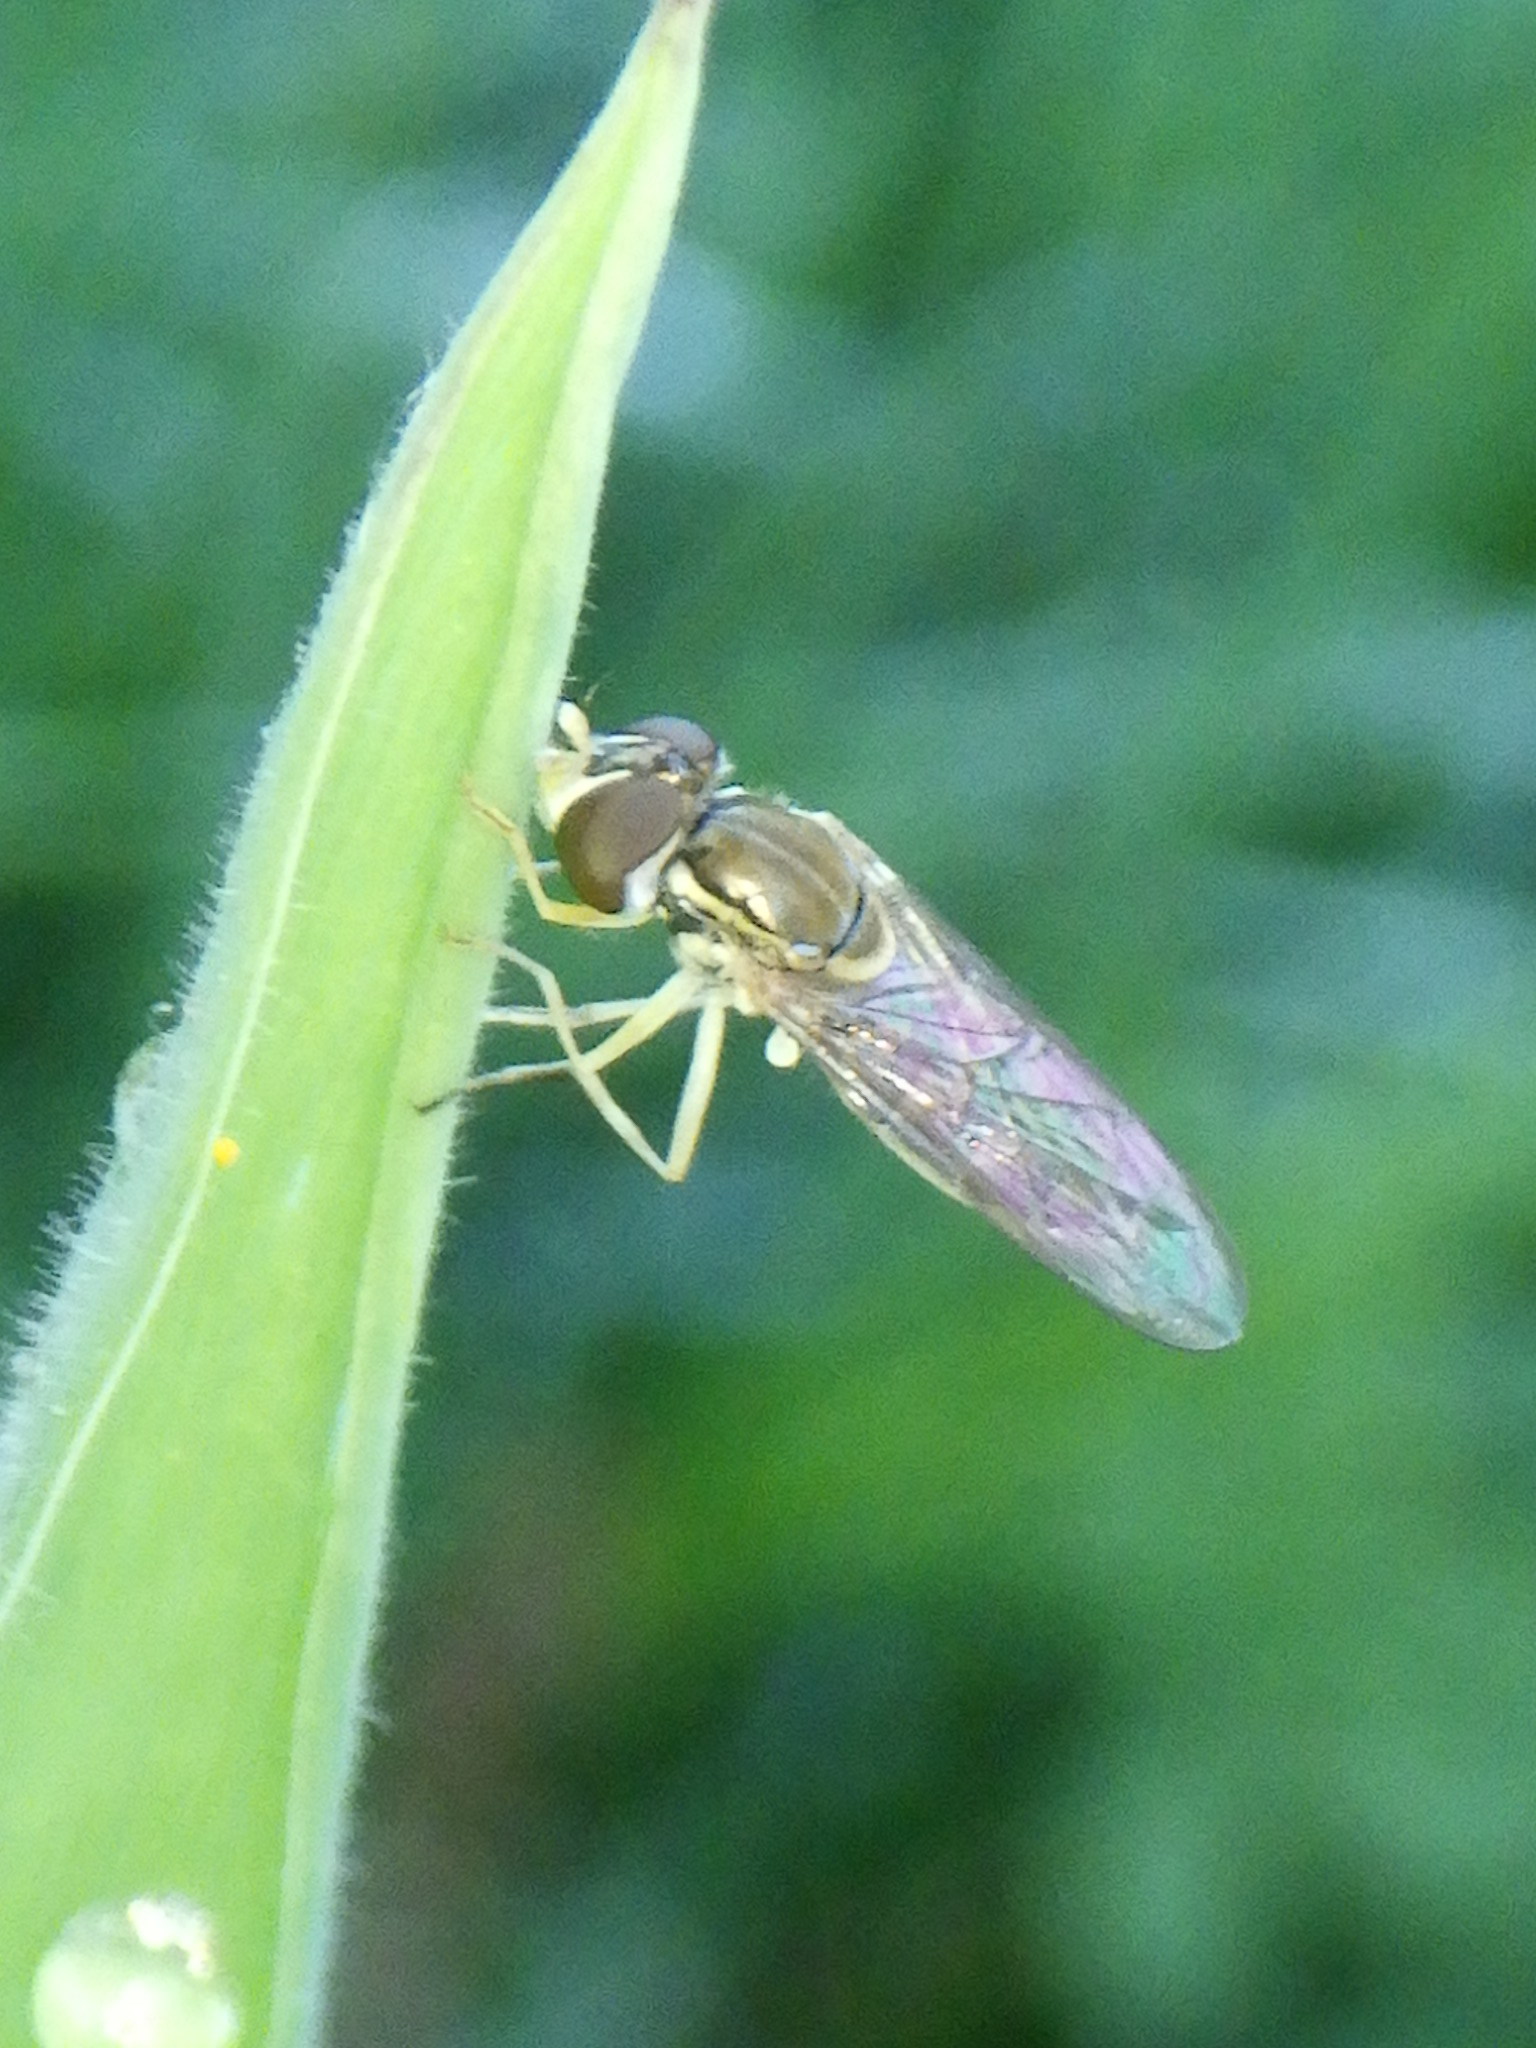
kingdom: Animalia
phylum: Arthropoda
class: Insecta
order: Diptera
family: Syrphidae
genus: Toxomerus
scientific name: Toxomerus marginatus
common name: Syrphid fly
